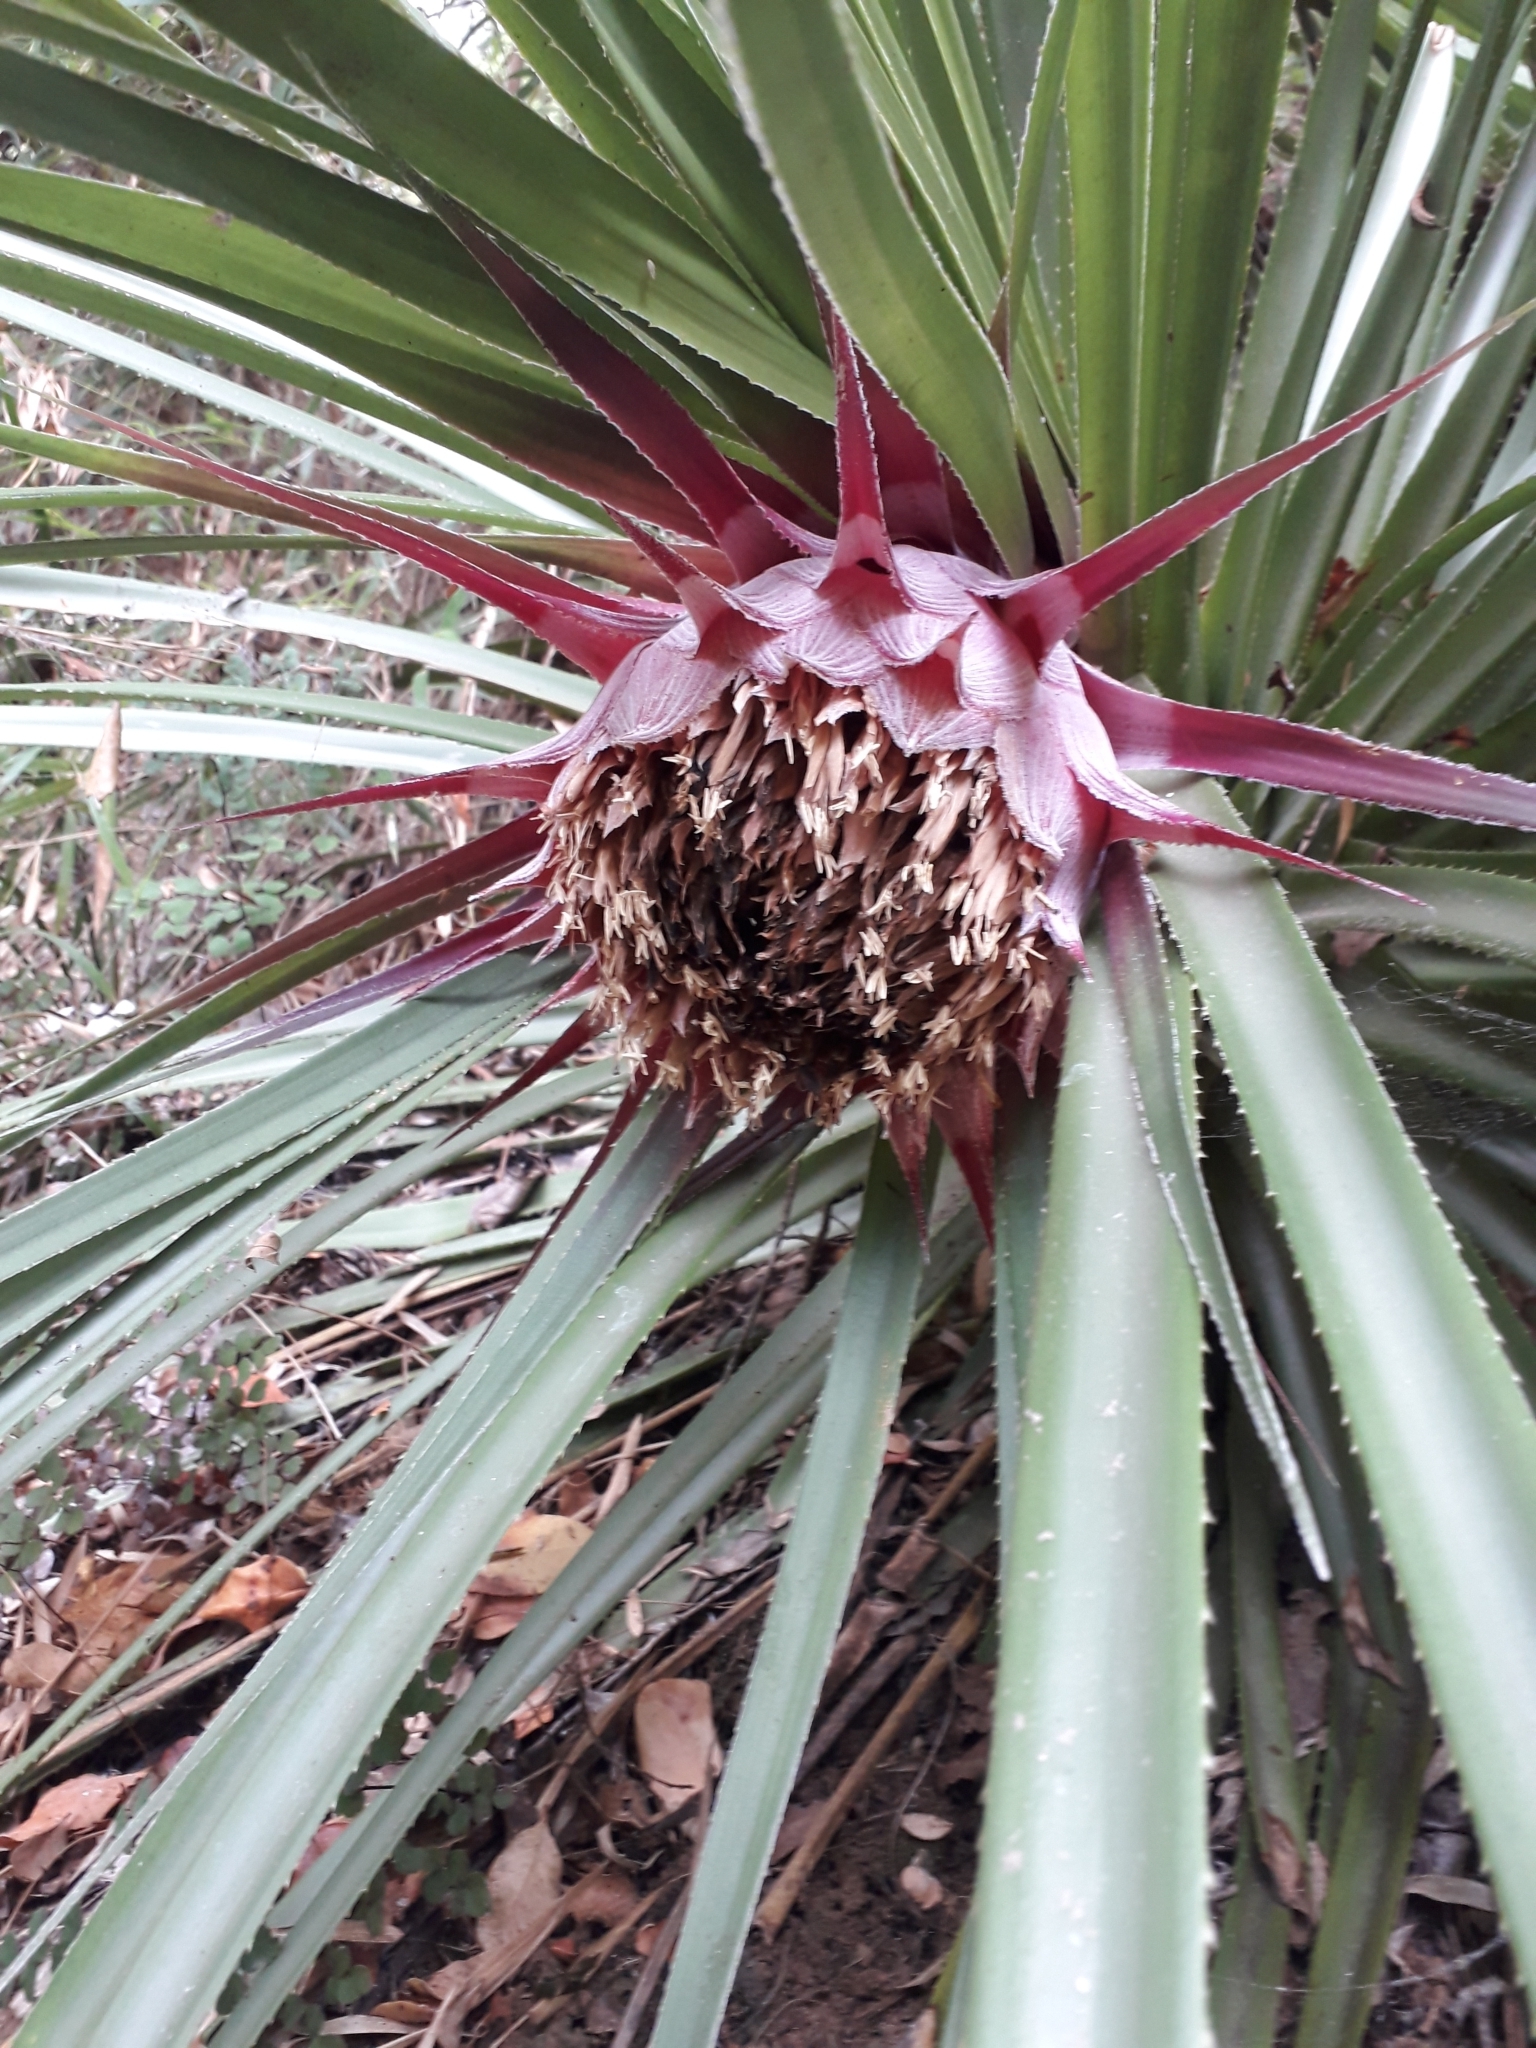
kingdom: Plantae
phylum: Tracheophyta
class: Liliopsida
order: Poales
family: Bromeliaceae
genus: Ochagavia
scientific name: Ochagavia carnea
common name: Tresco rhodostachys
